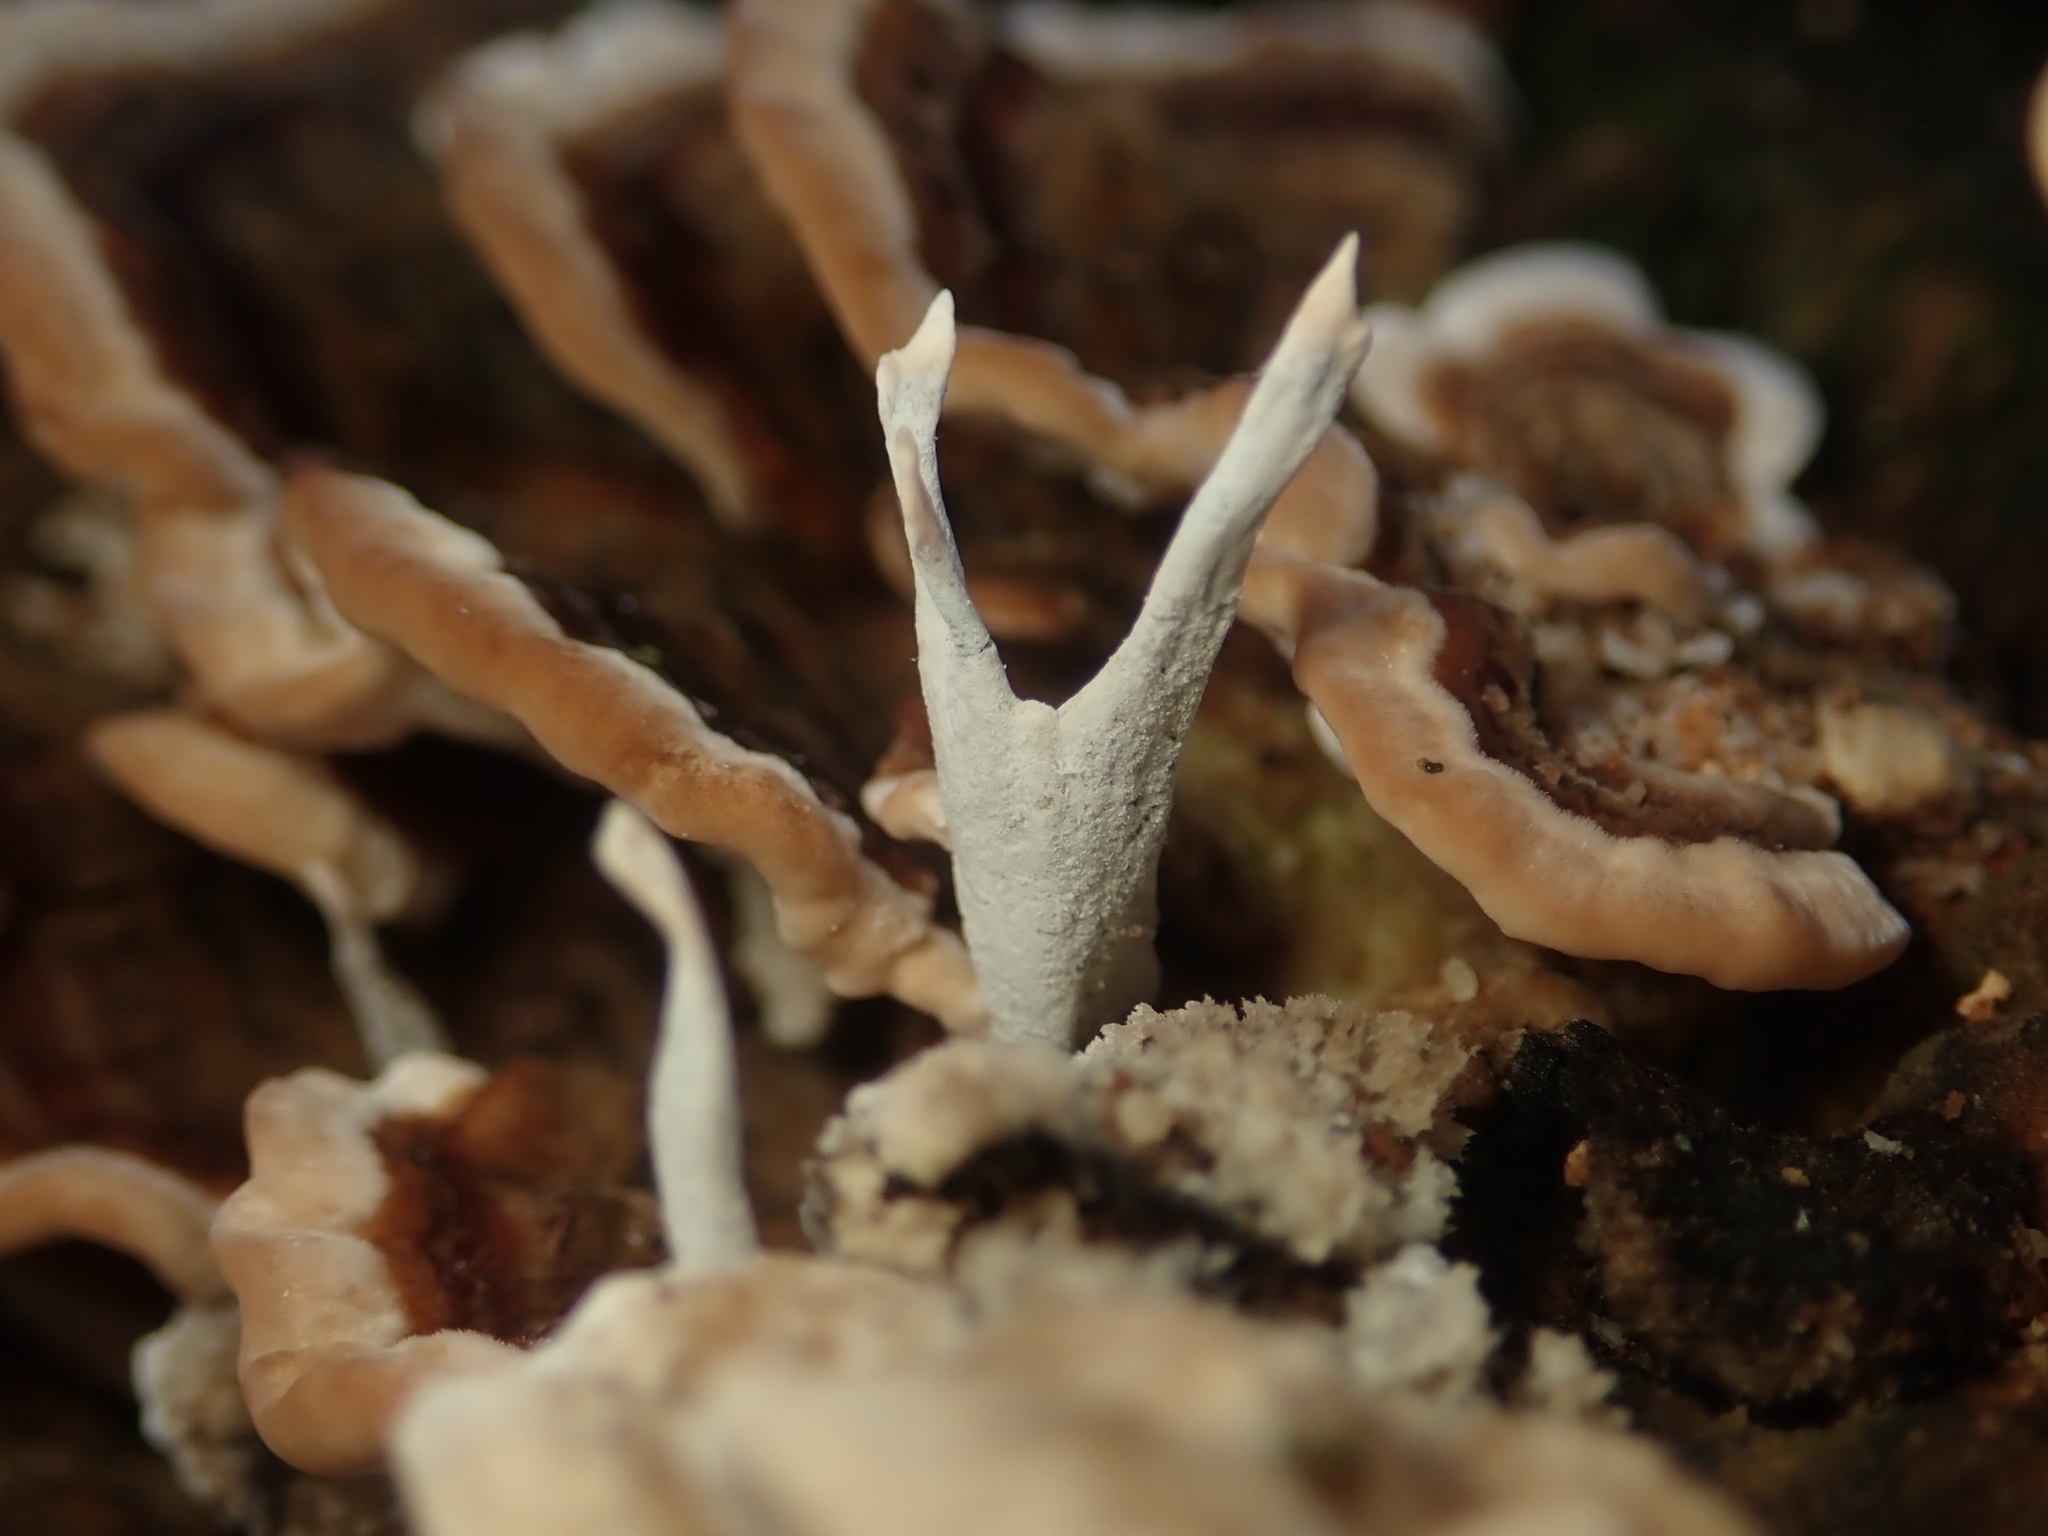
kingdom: Fungi
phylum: Ascomycota
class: Sordariomycetes
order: Xylariales
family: Xylariaceae
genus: Xylaria
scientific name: Xylaria hypoxylon
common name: Candle-snuff fungus
